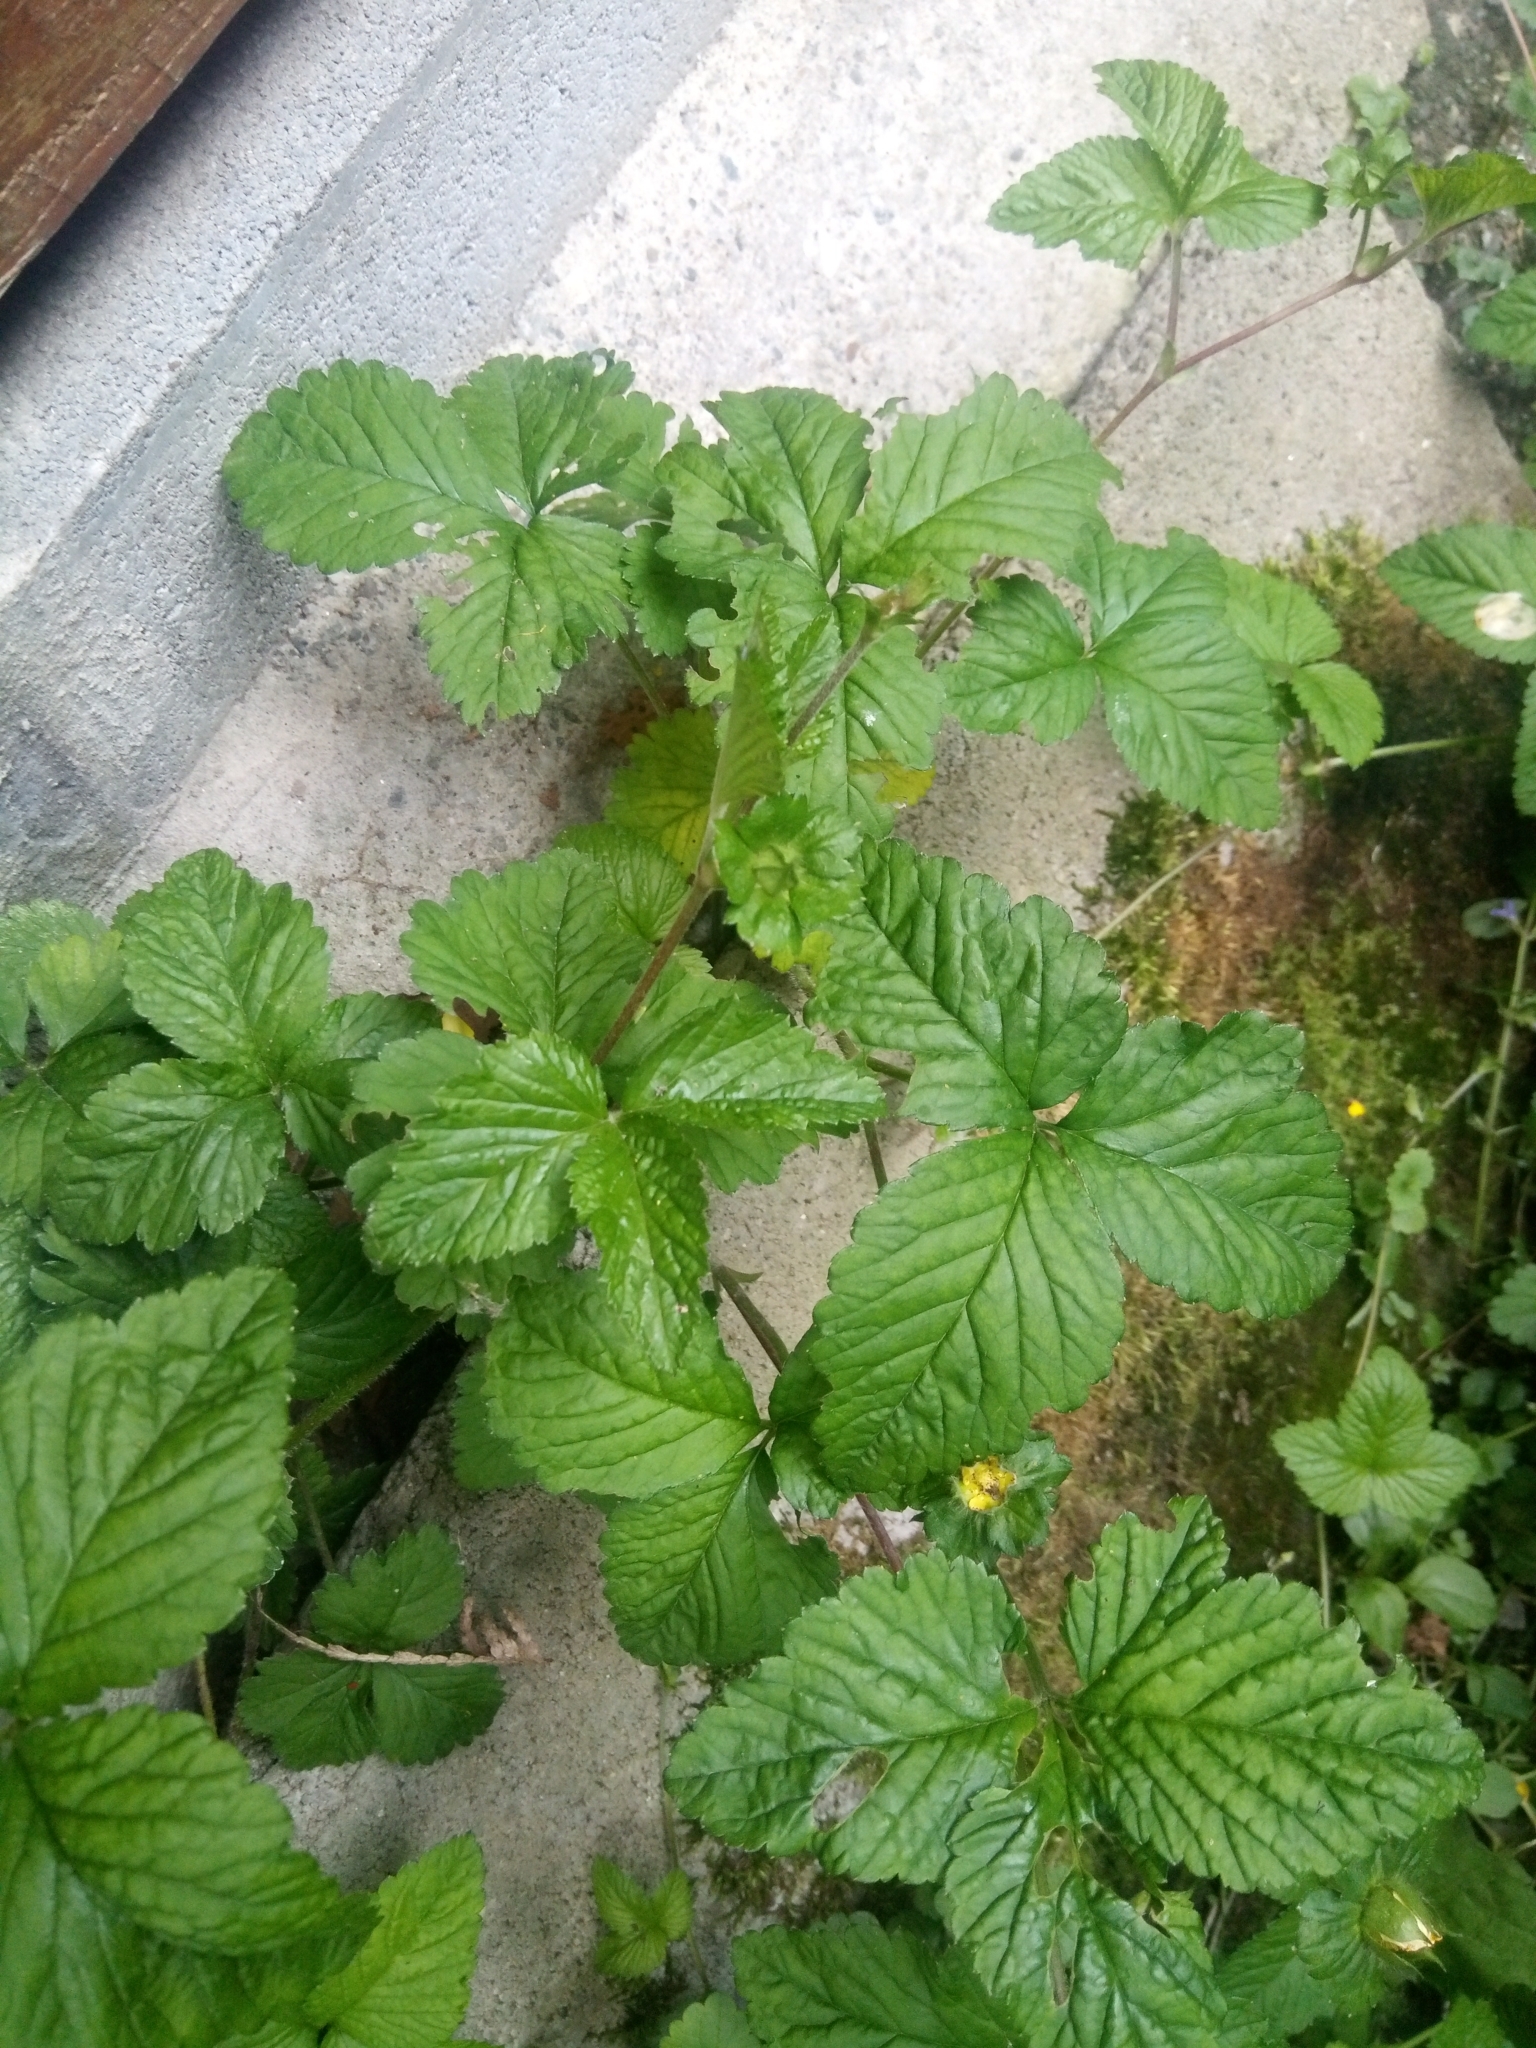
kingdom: Plantae
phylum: Tracheophyta
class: Magnoliopsida
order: Rosales
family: Rosaceae
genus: Potentilla
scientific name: Potentilla indica
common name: Yellow-flowered strawberry
